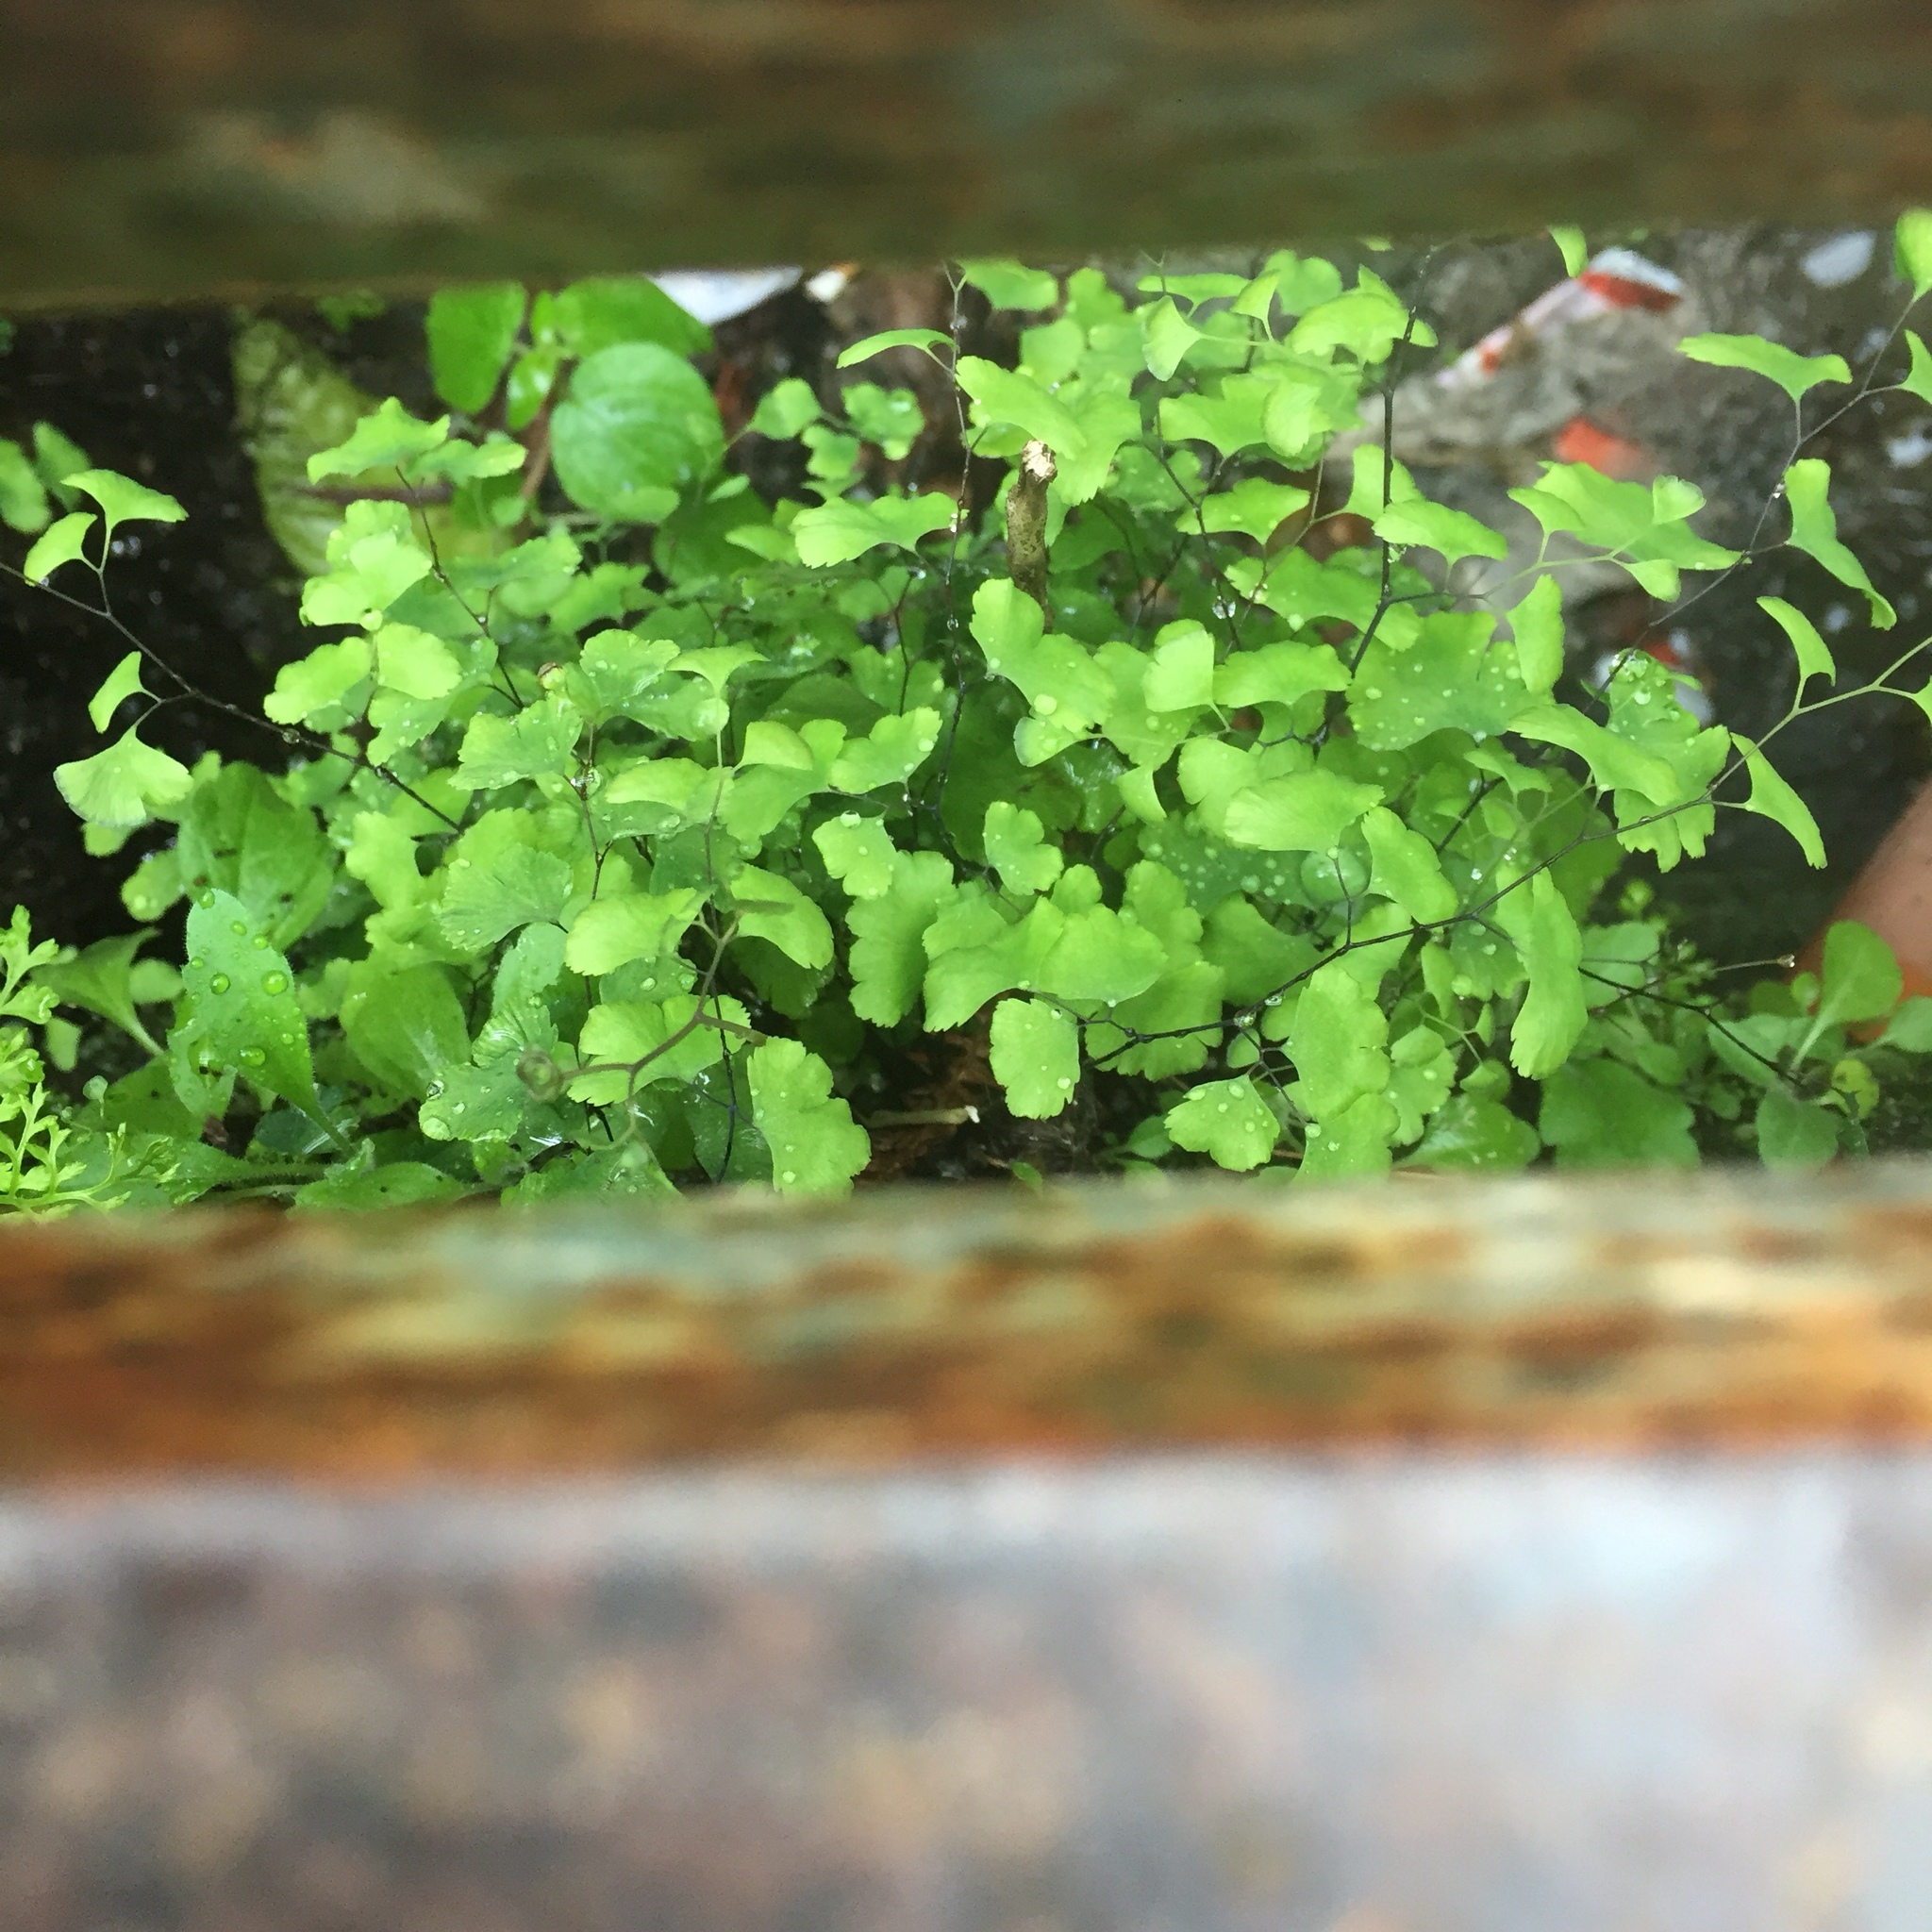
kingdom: Plantae
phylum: Tracheophyta
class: Polypodiopsida
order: Polypodiales
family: Pteridaceae
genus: Adiantum
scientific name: Adiantum capillus-veneris
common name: Maidenhair fern
